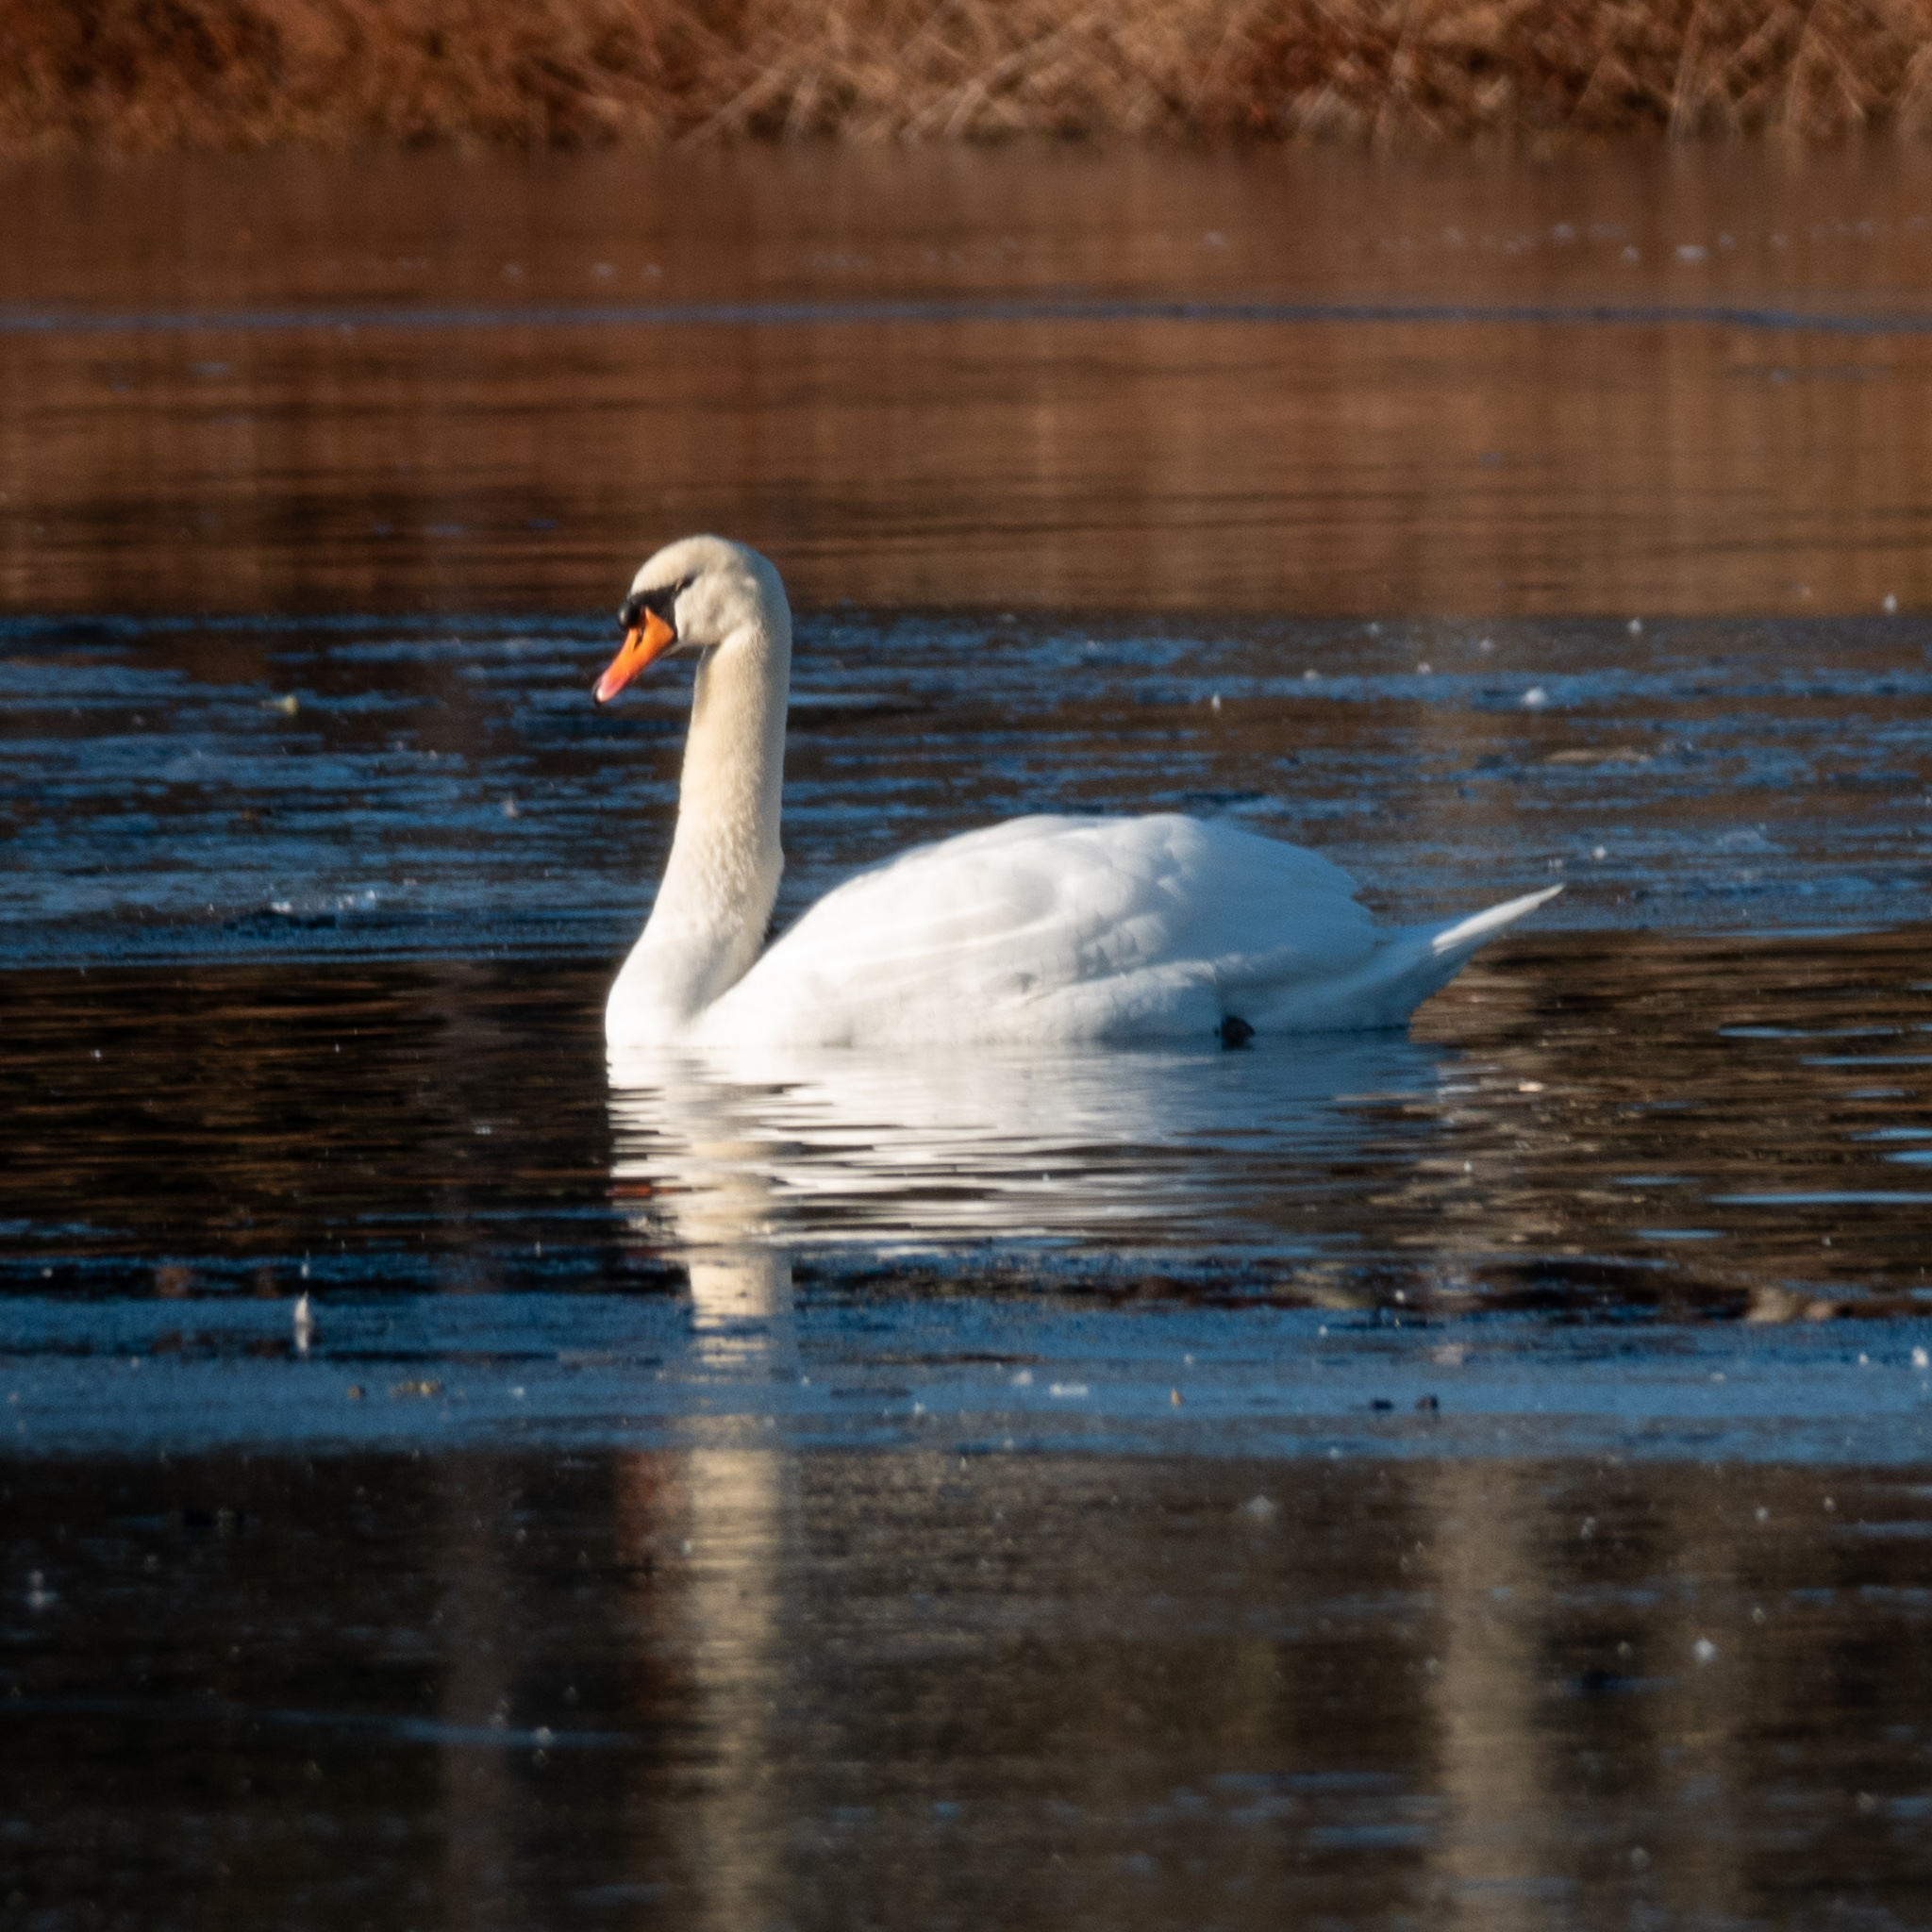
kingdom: Animalia
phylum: Chordata
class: Aves
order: Anseriformes
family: Anatidae
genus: Cygnus
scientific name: Cygnus olor
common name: Mute swan
